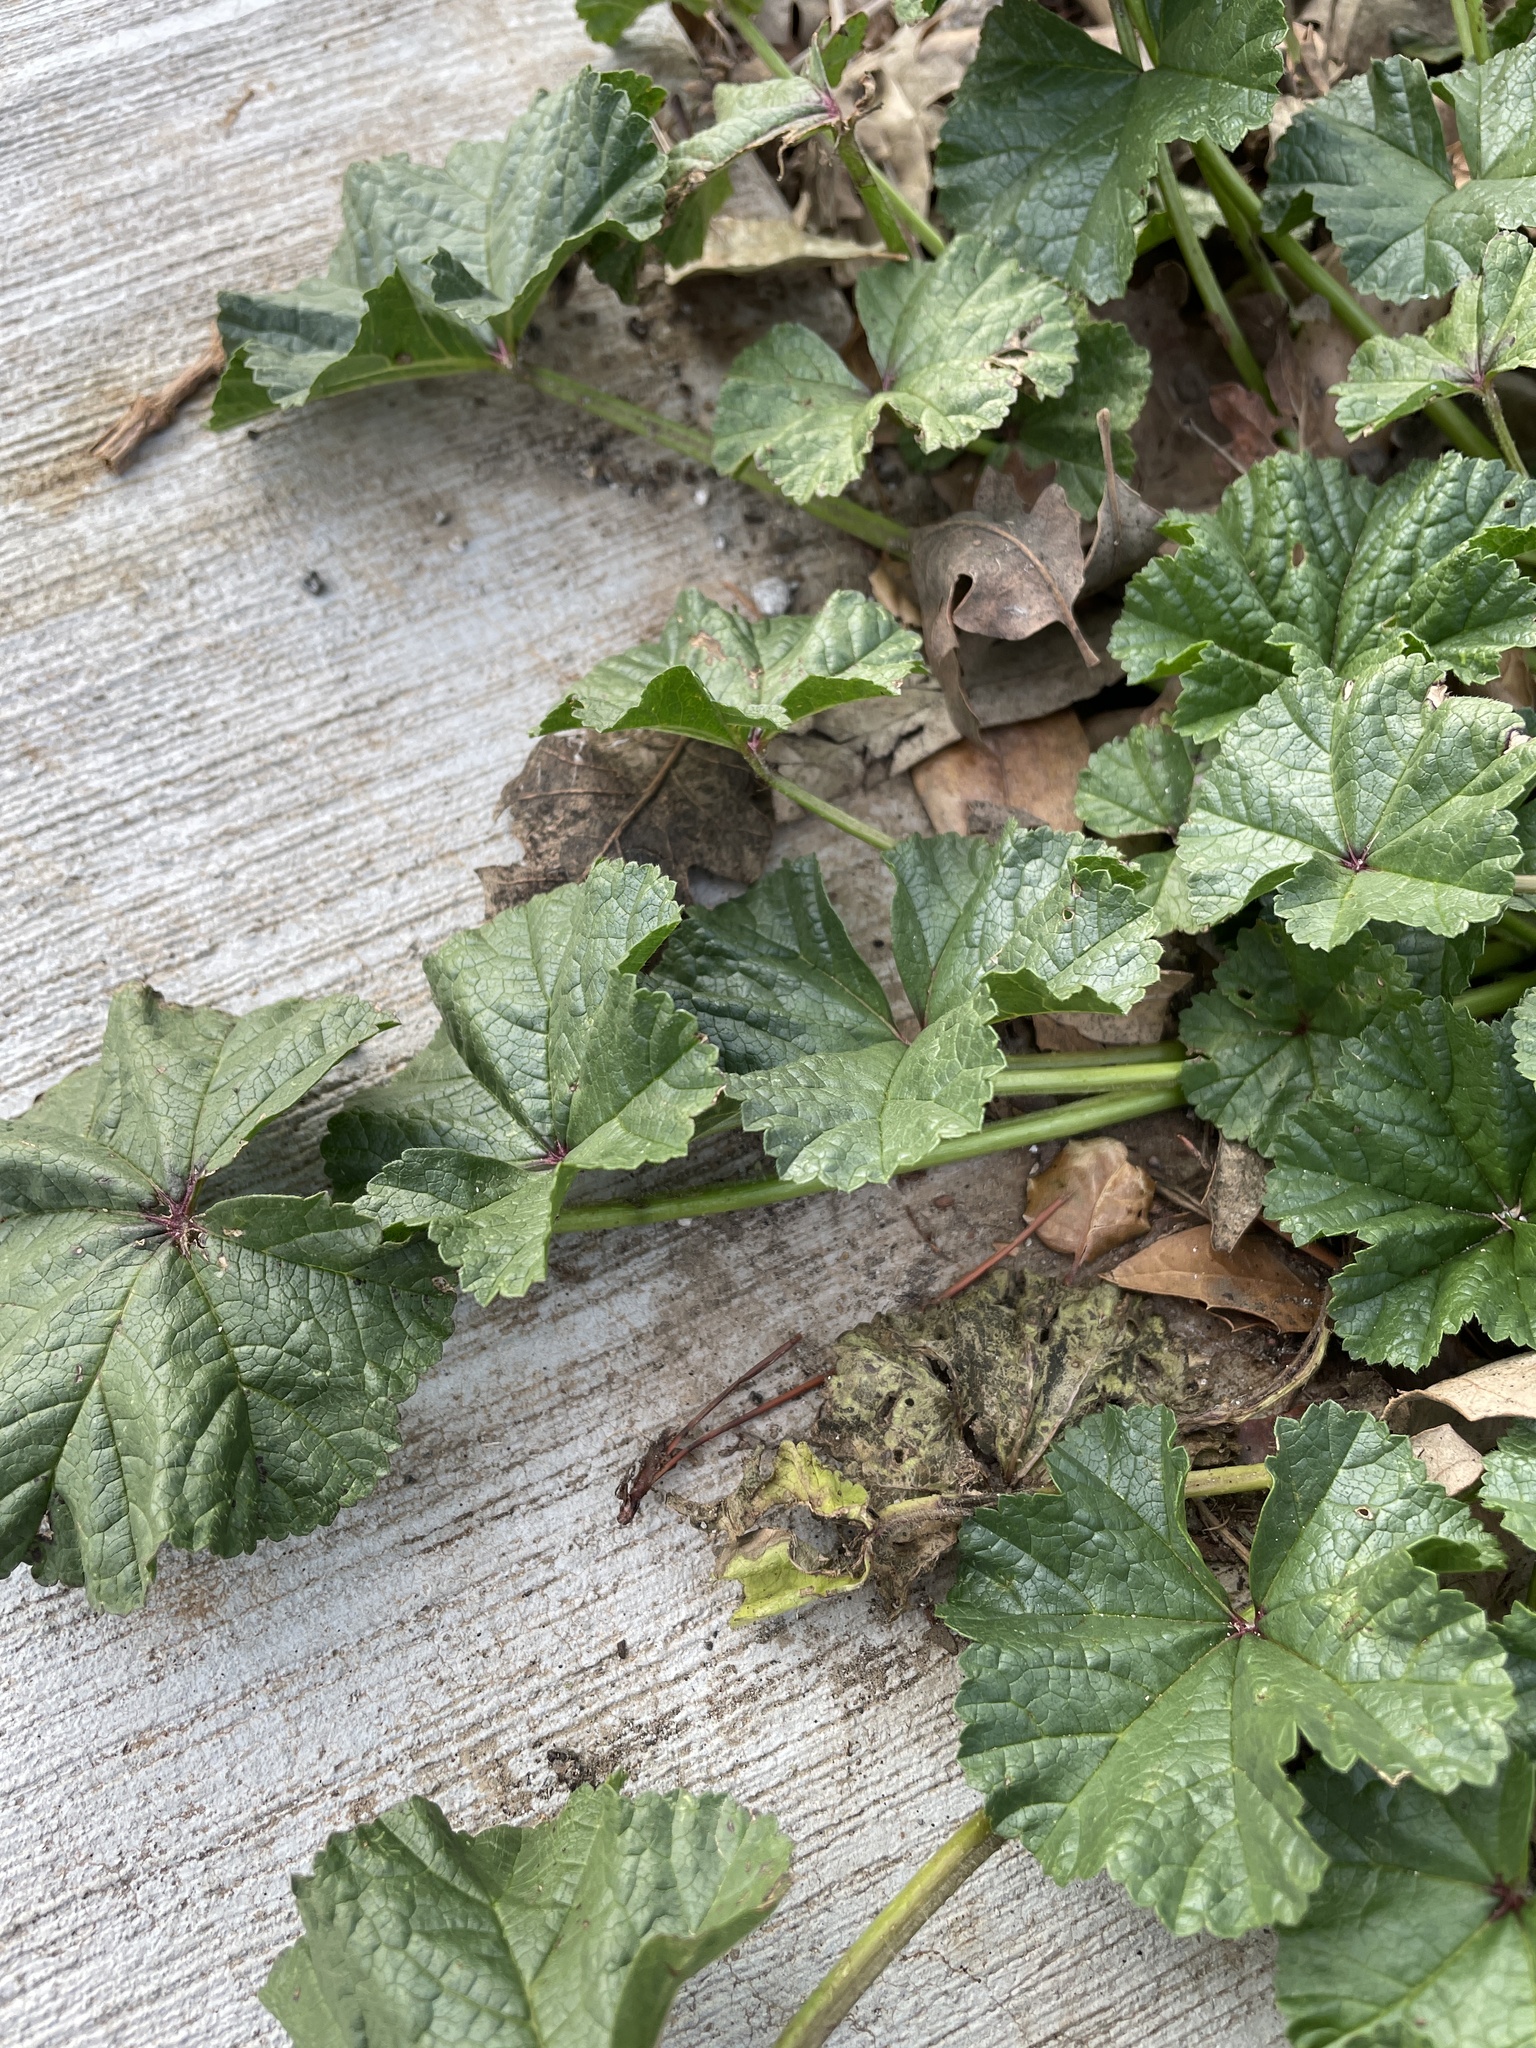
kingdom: Plantae
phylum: Tracheophyta
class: Magnoliopsida
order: Malvales
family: Malvaceae
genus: Malva
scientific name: Malva
